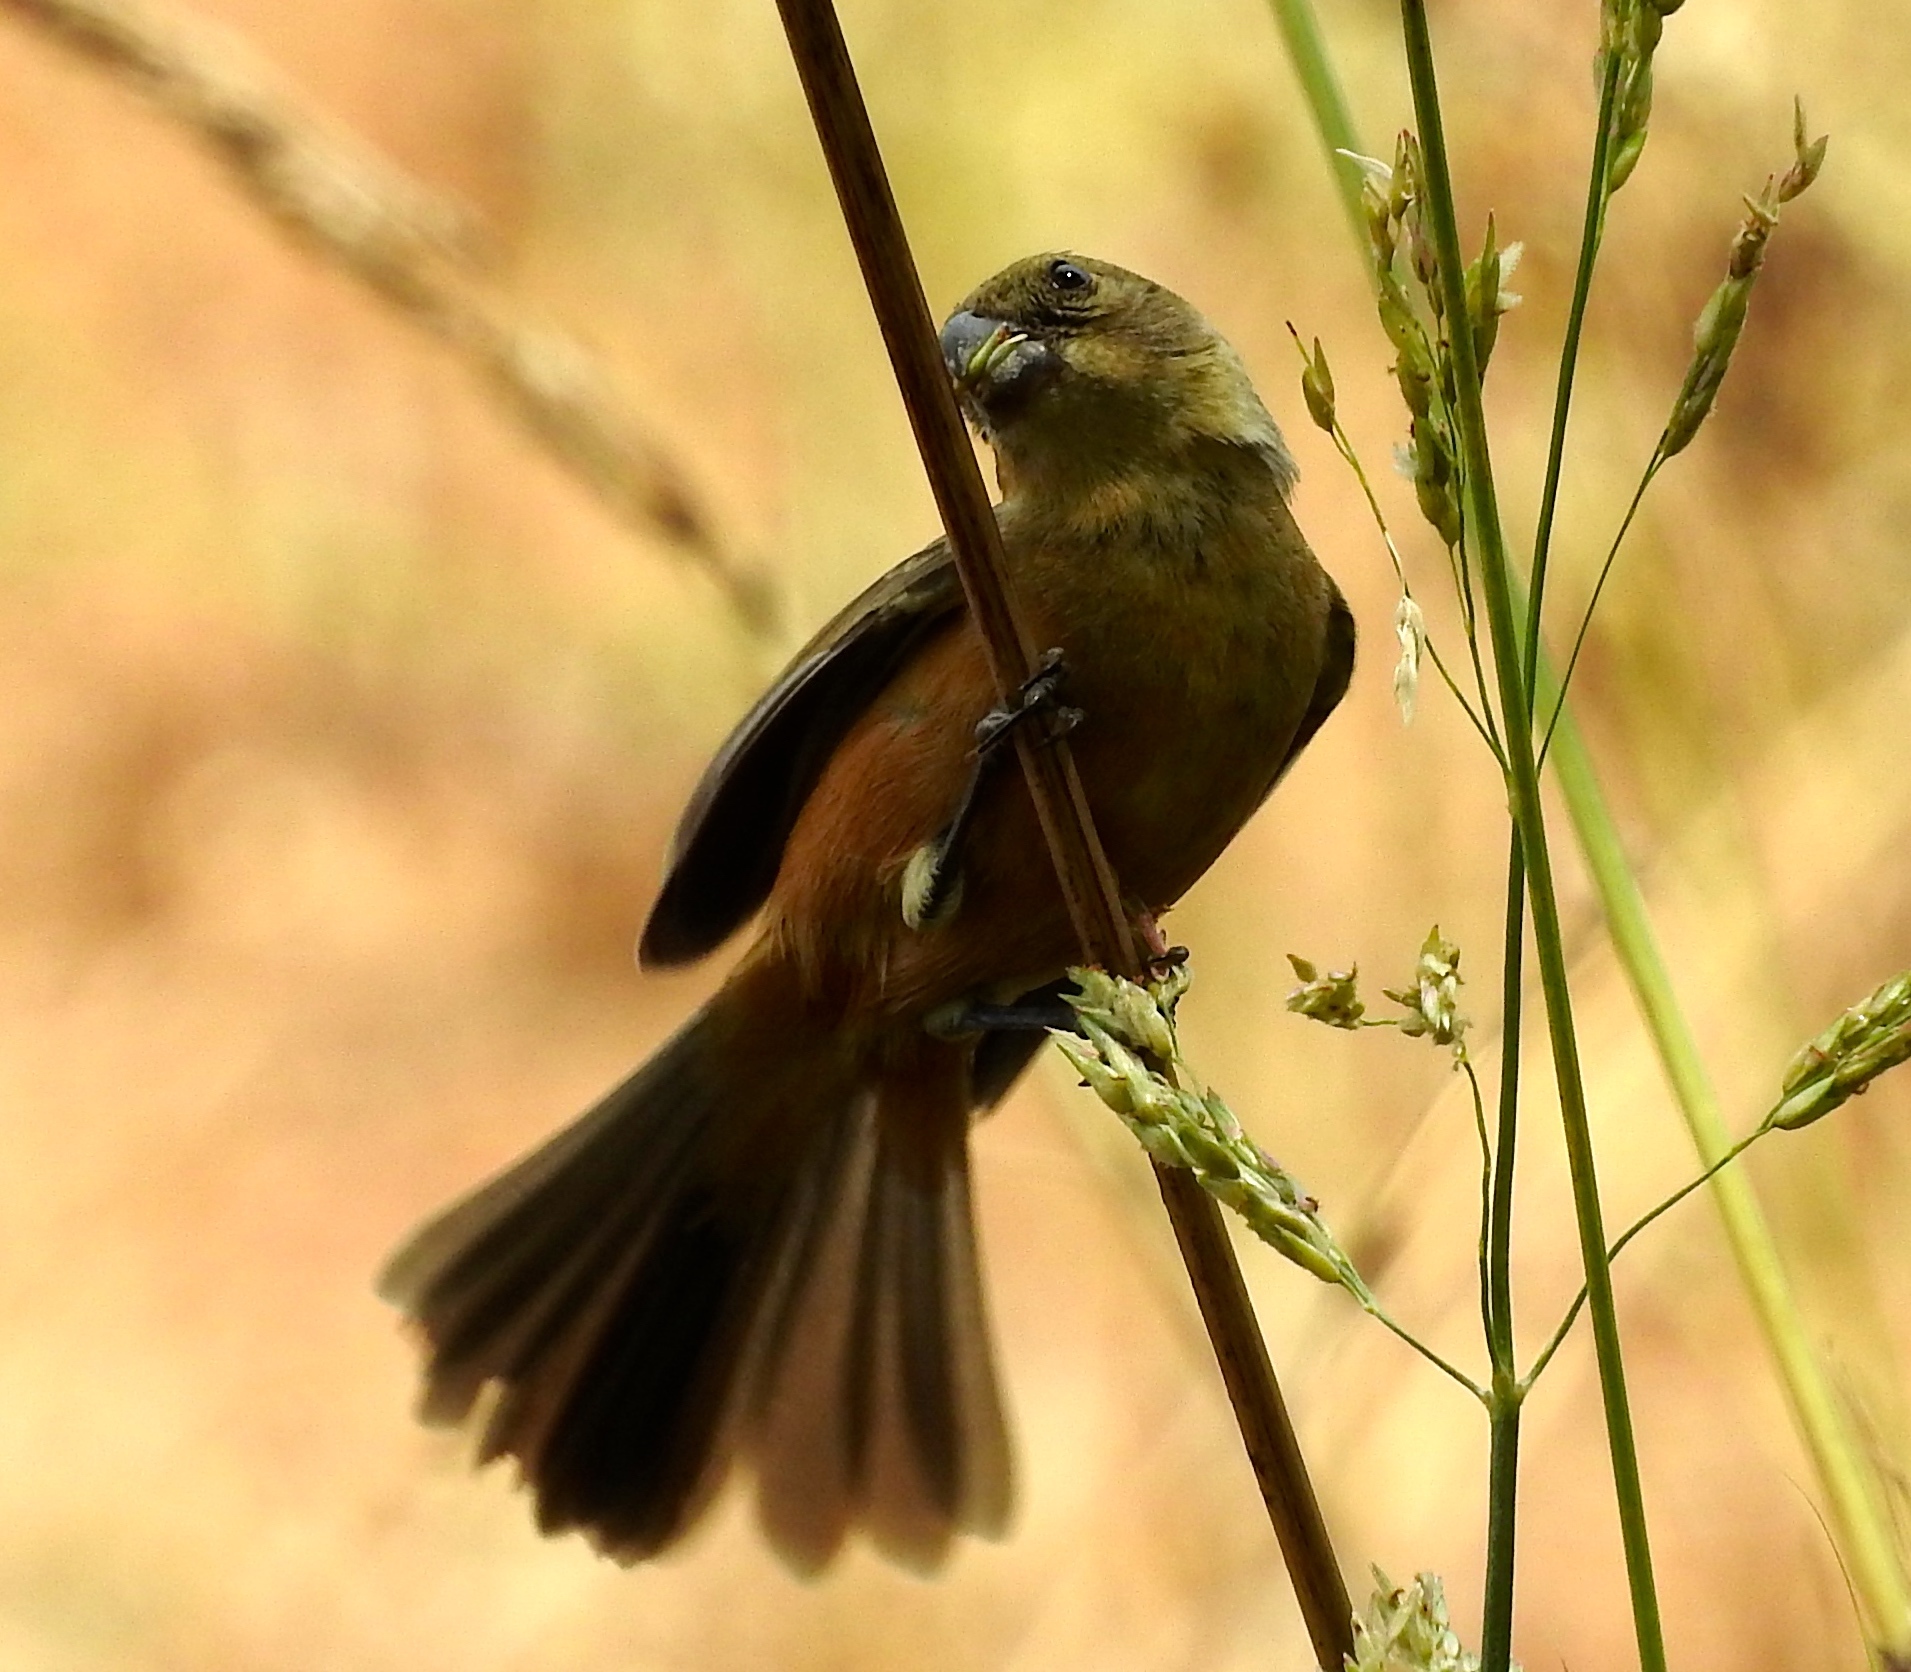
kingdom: Animalia
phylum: Chordata
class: Aves
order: Passeriformes
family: Thraupidae
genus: Sporophila
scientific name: Sporophila torqueola
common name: White-collared seedeater
